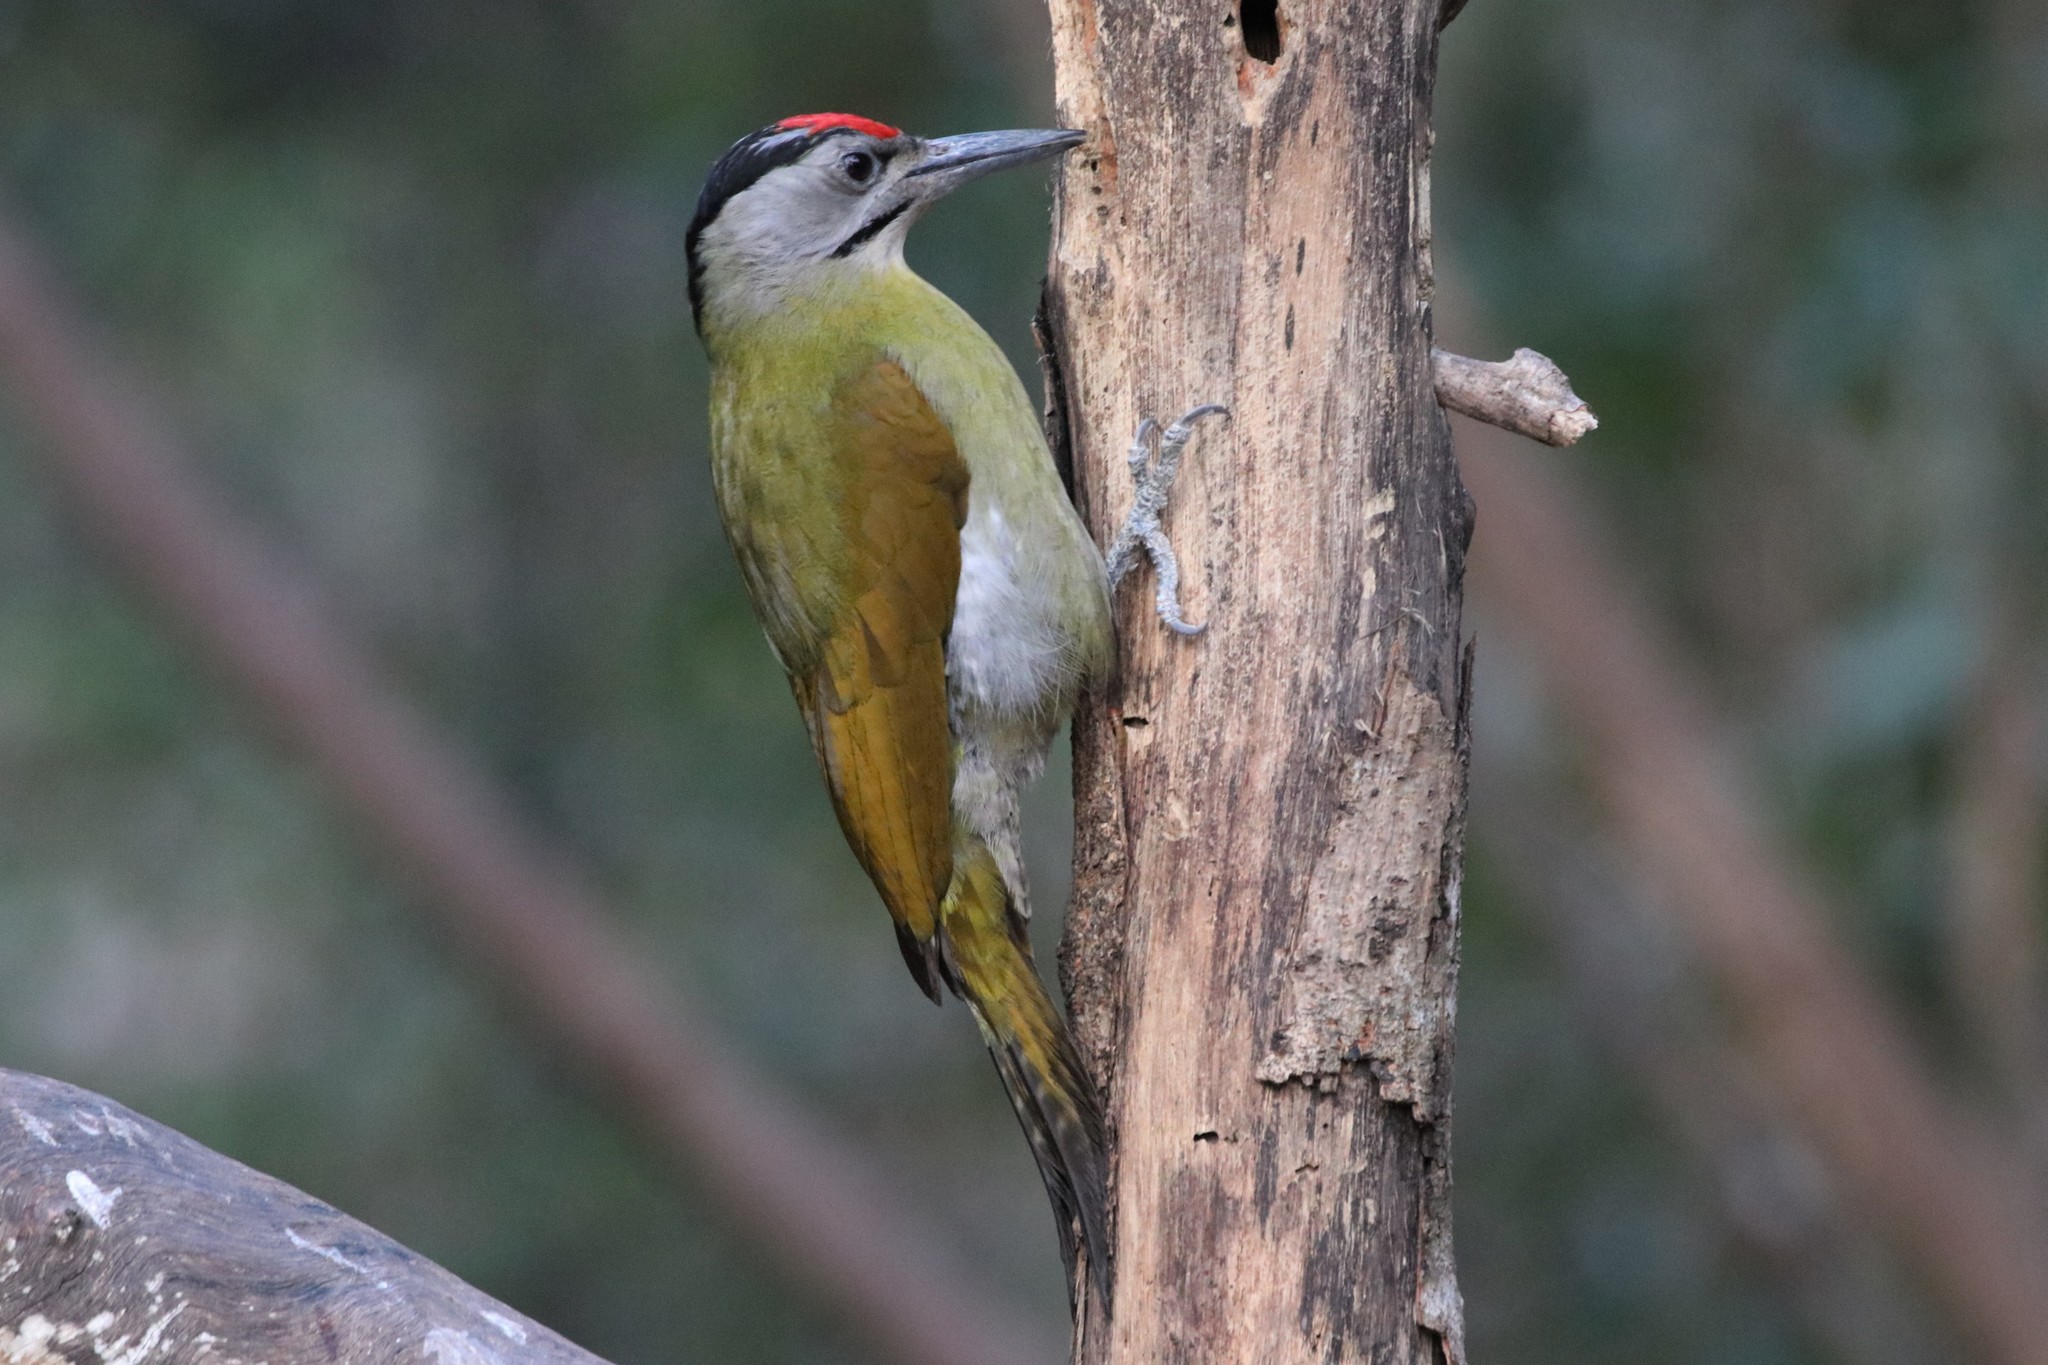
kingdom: Animalia
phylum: Chordata
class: Aves
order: Piciformes
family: Picidae
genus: Picus
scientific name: Picus canus
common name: Grey-headed woodpecker
